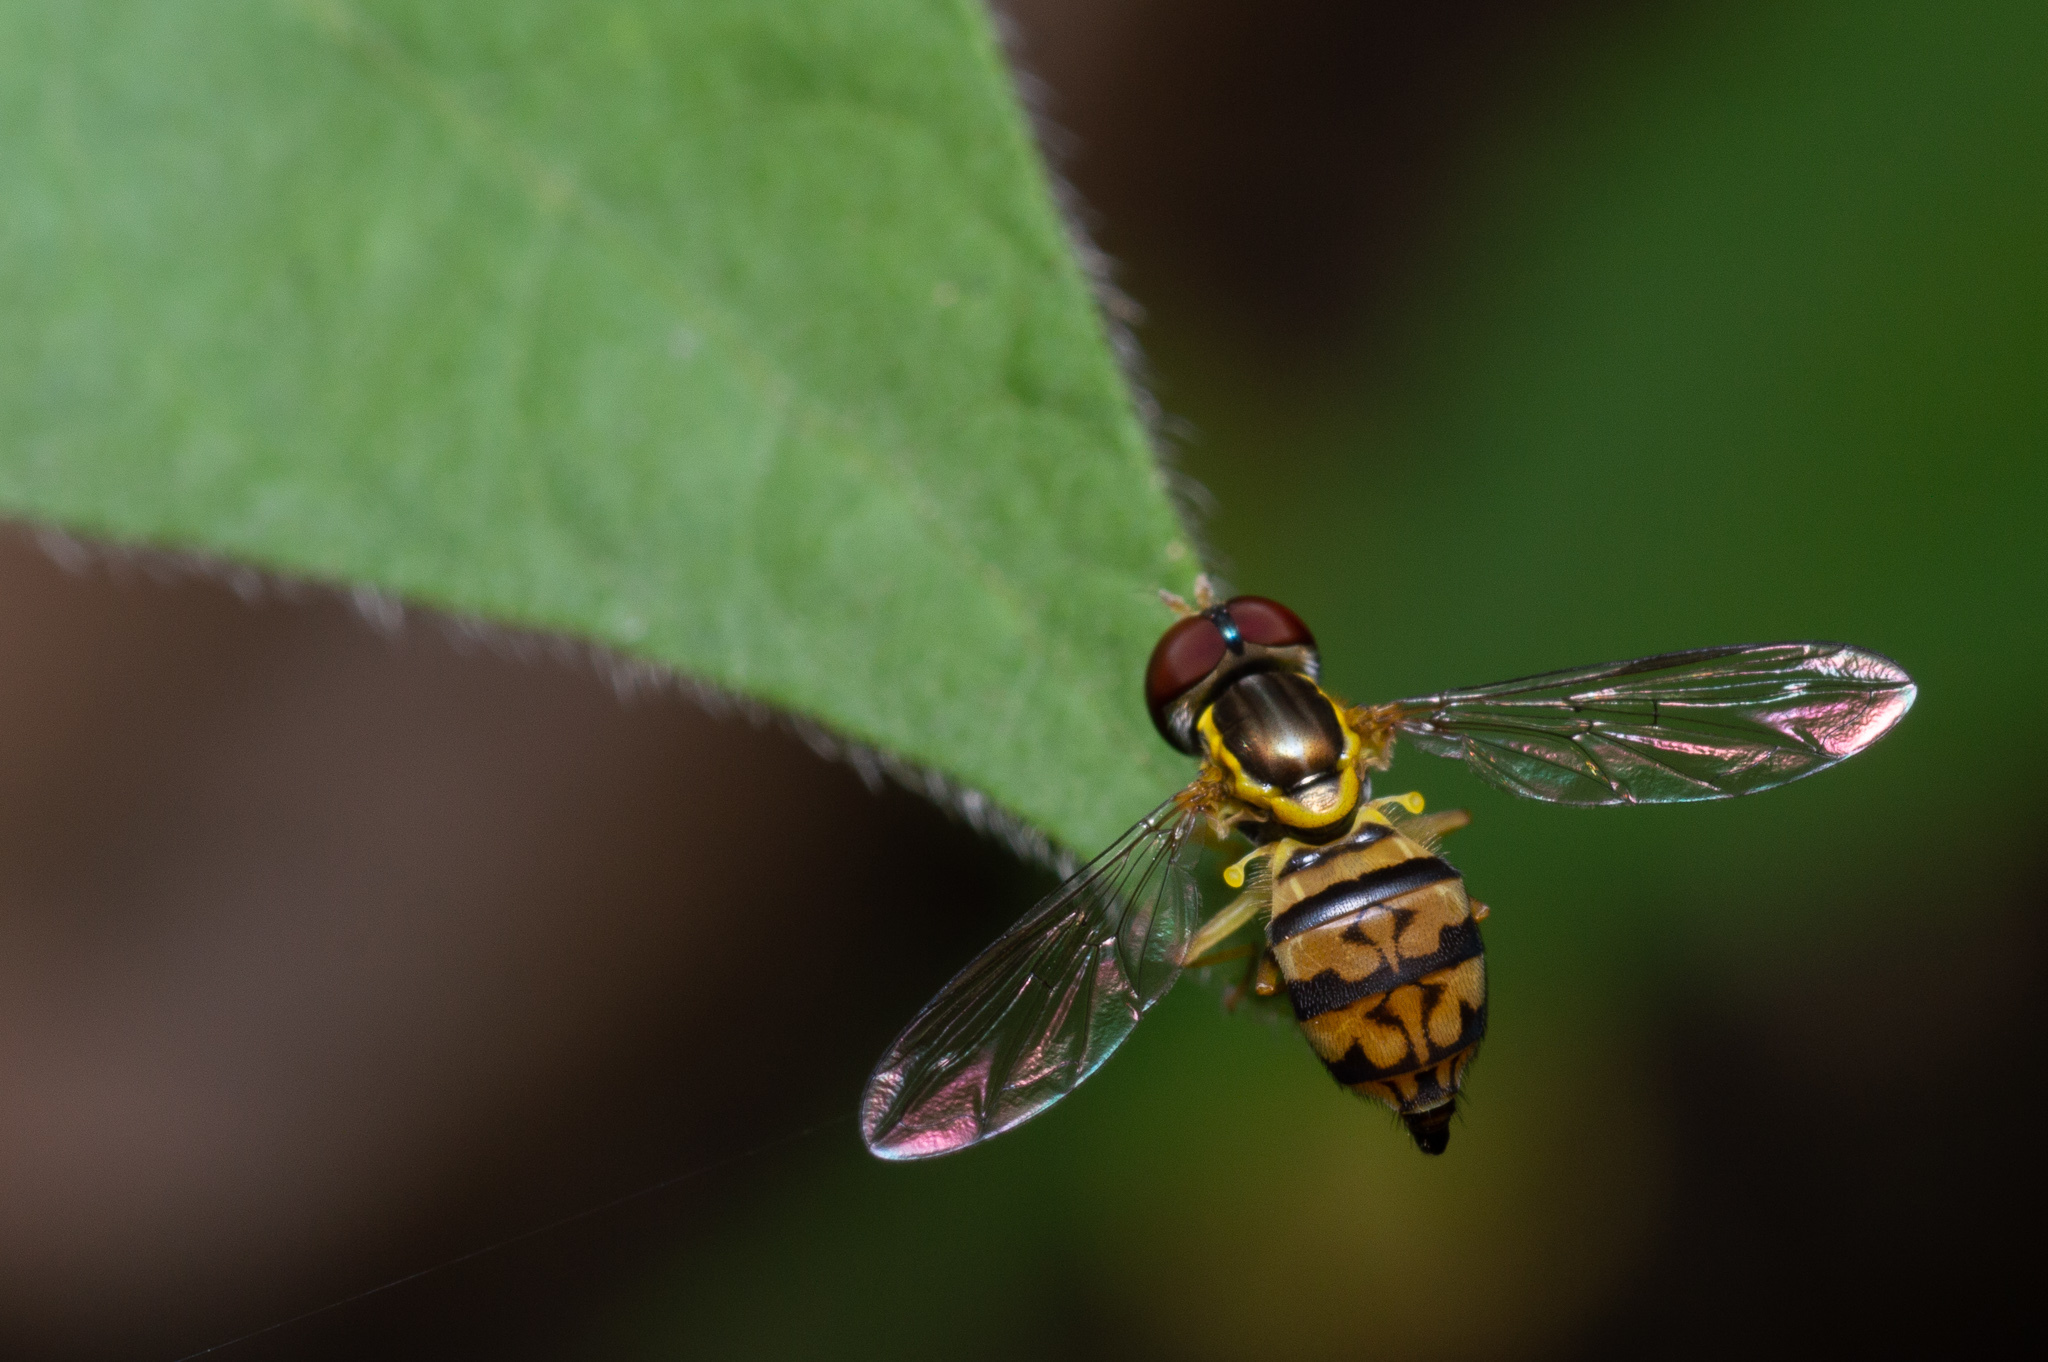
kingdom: Animalia
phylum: Arthropoda
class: Insecta
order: Diptera
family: Syrphidae
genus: Toxomerus
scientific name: Toxomerus geminatus
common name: Eastern calligrapher
